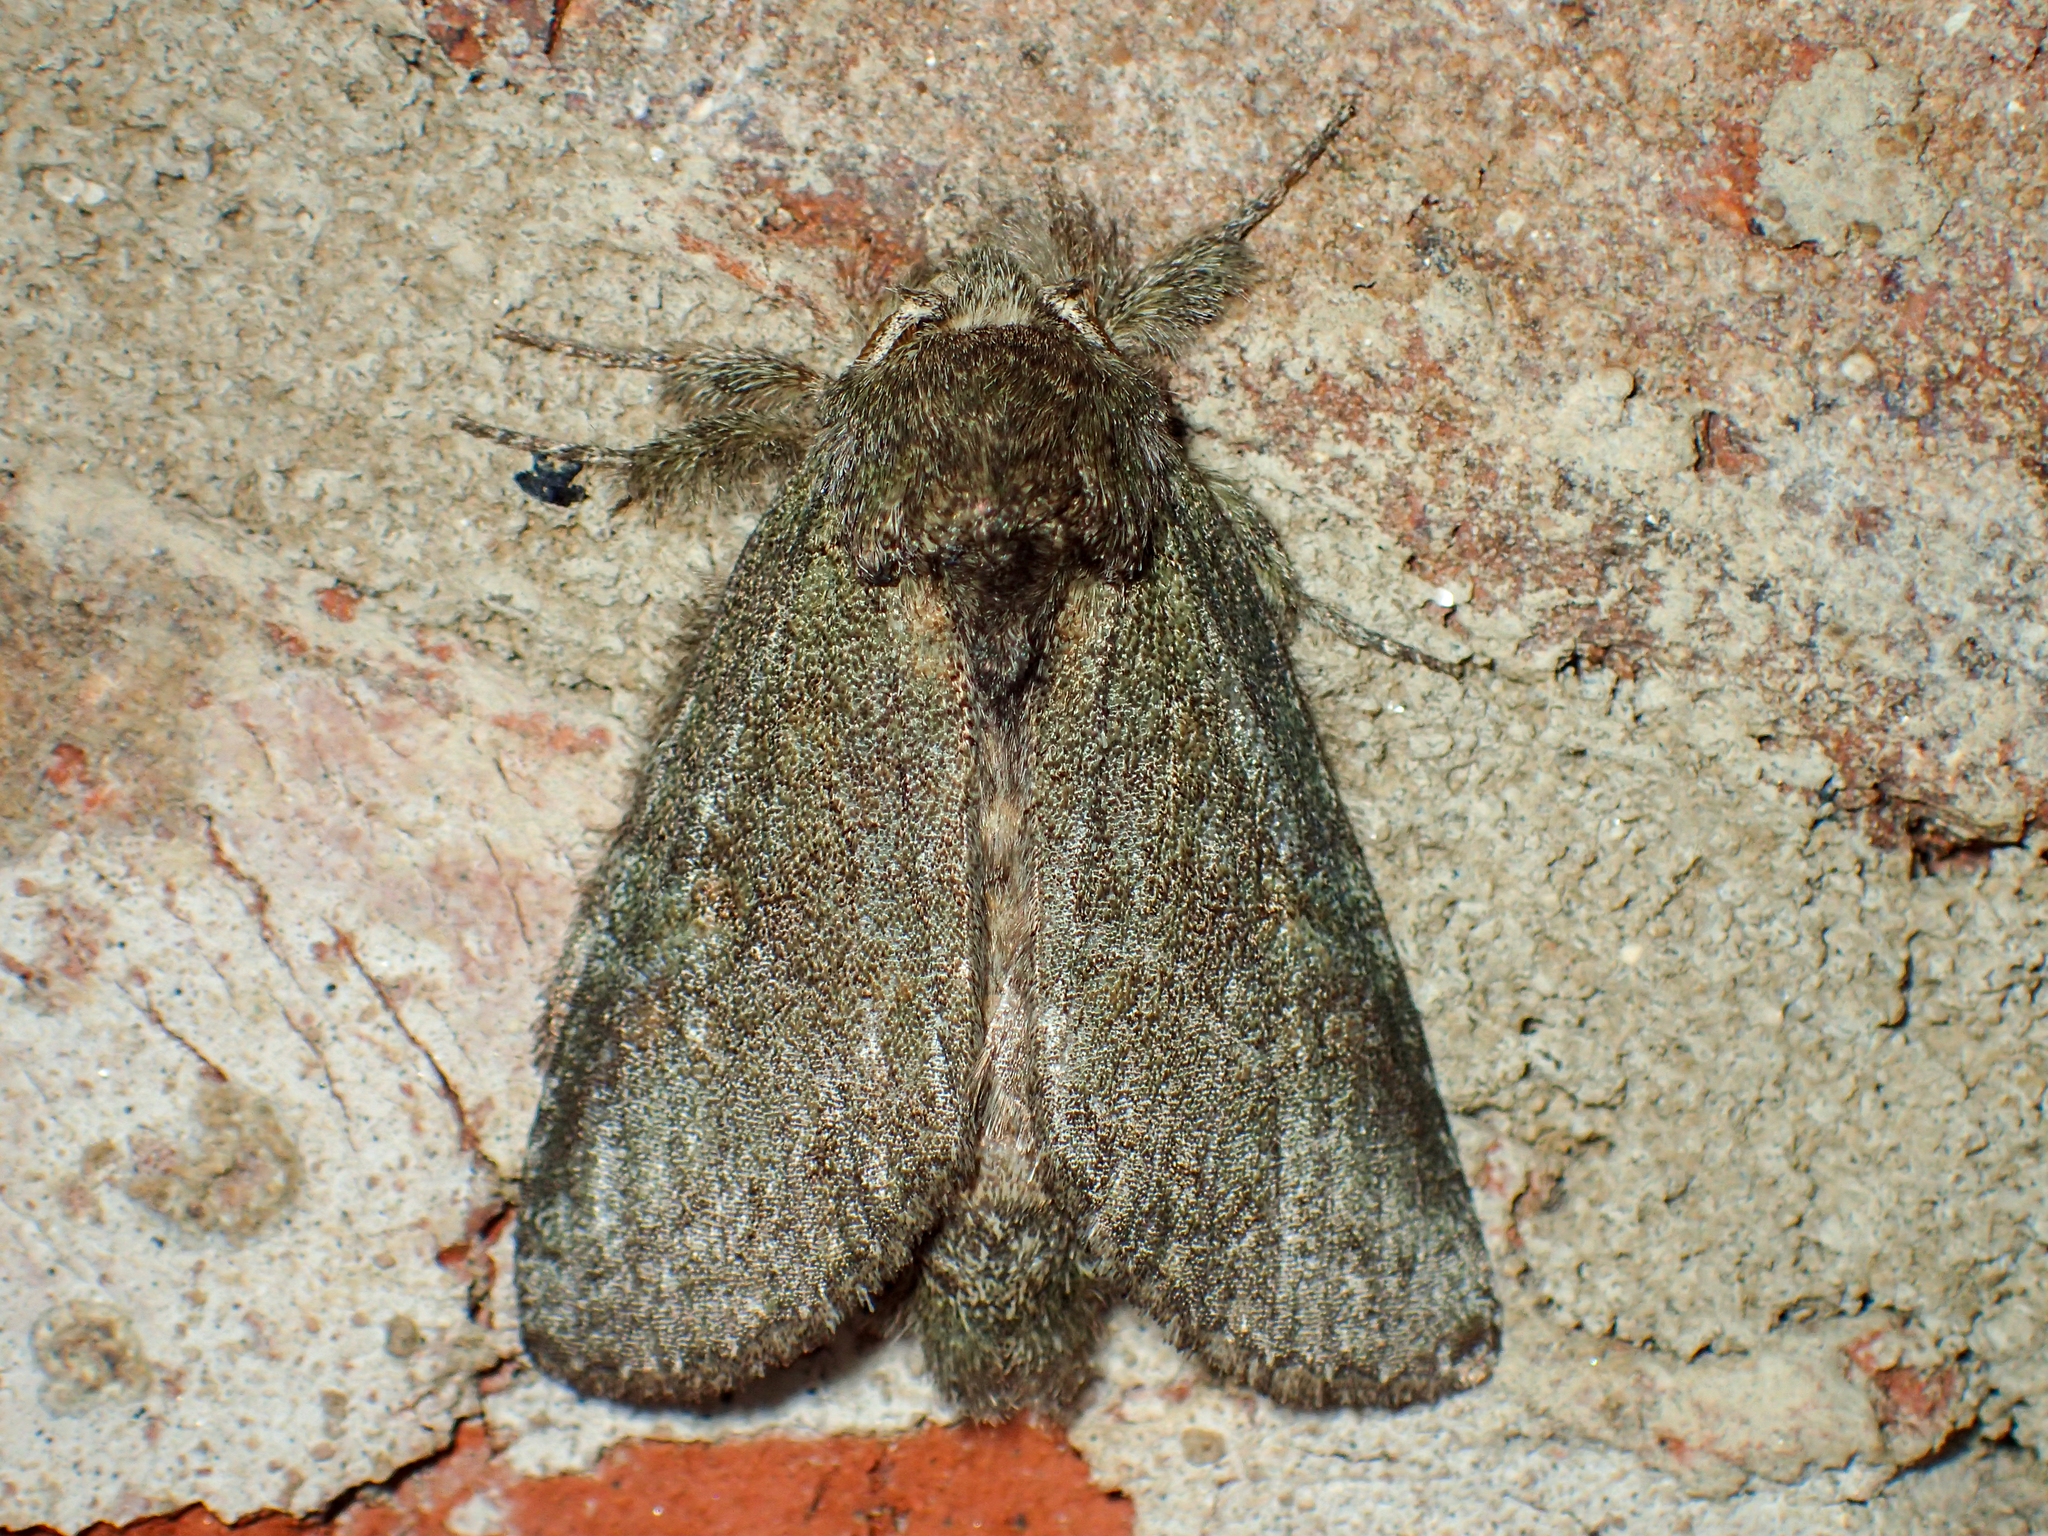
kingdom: Animalia
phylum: Arthropoda
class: Insecta
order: Lepidoptera
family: Notodontidae
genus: Disphragis
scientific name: Disphragis Cecrita guttivitta
